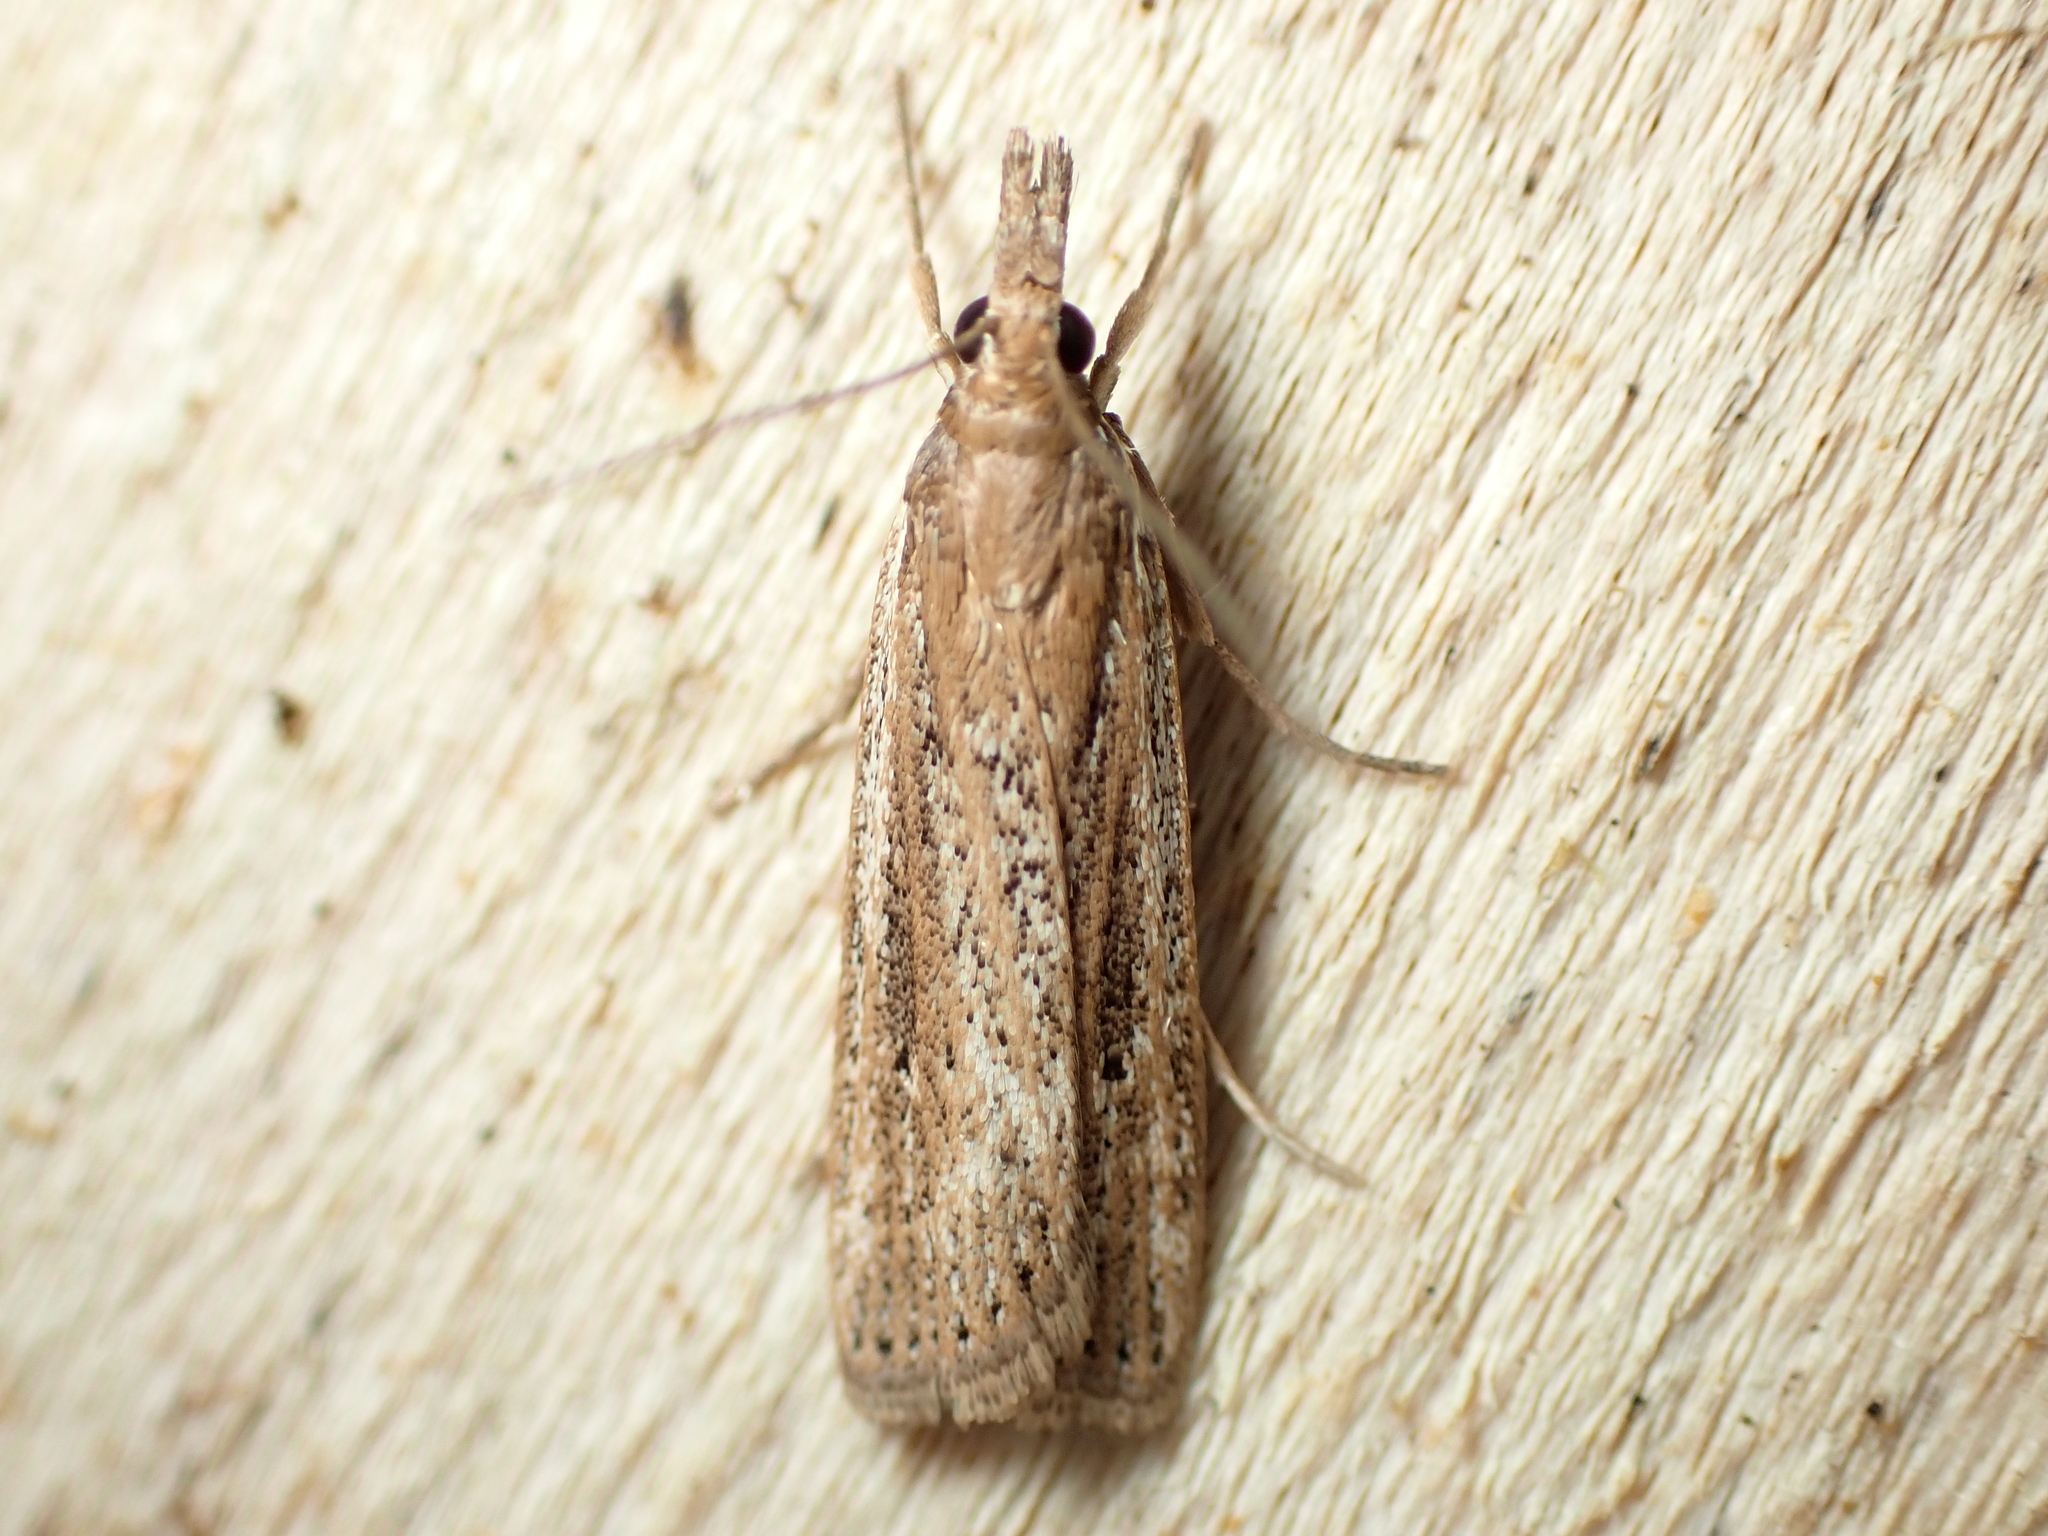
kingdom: Animalia
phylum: Arthropoda
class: Insecta
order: Lepidoptera
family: Crambidae
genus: Eudonia
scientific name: Eudonia sabulosella
